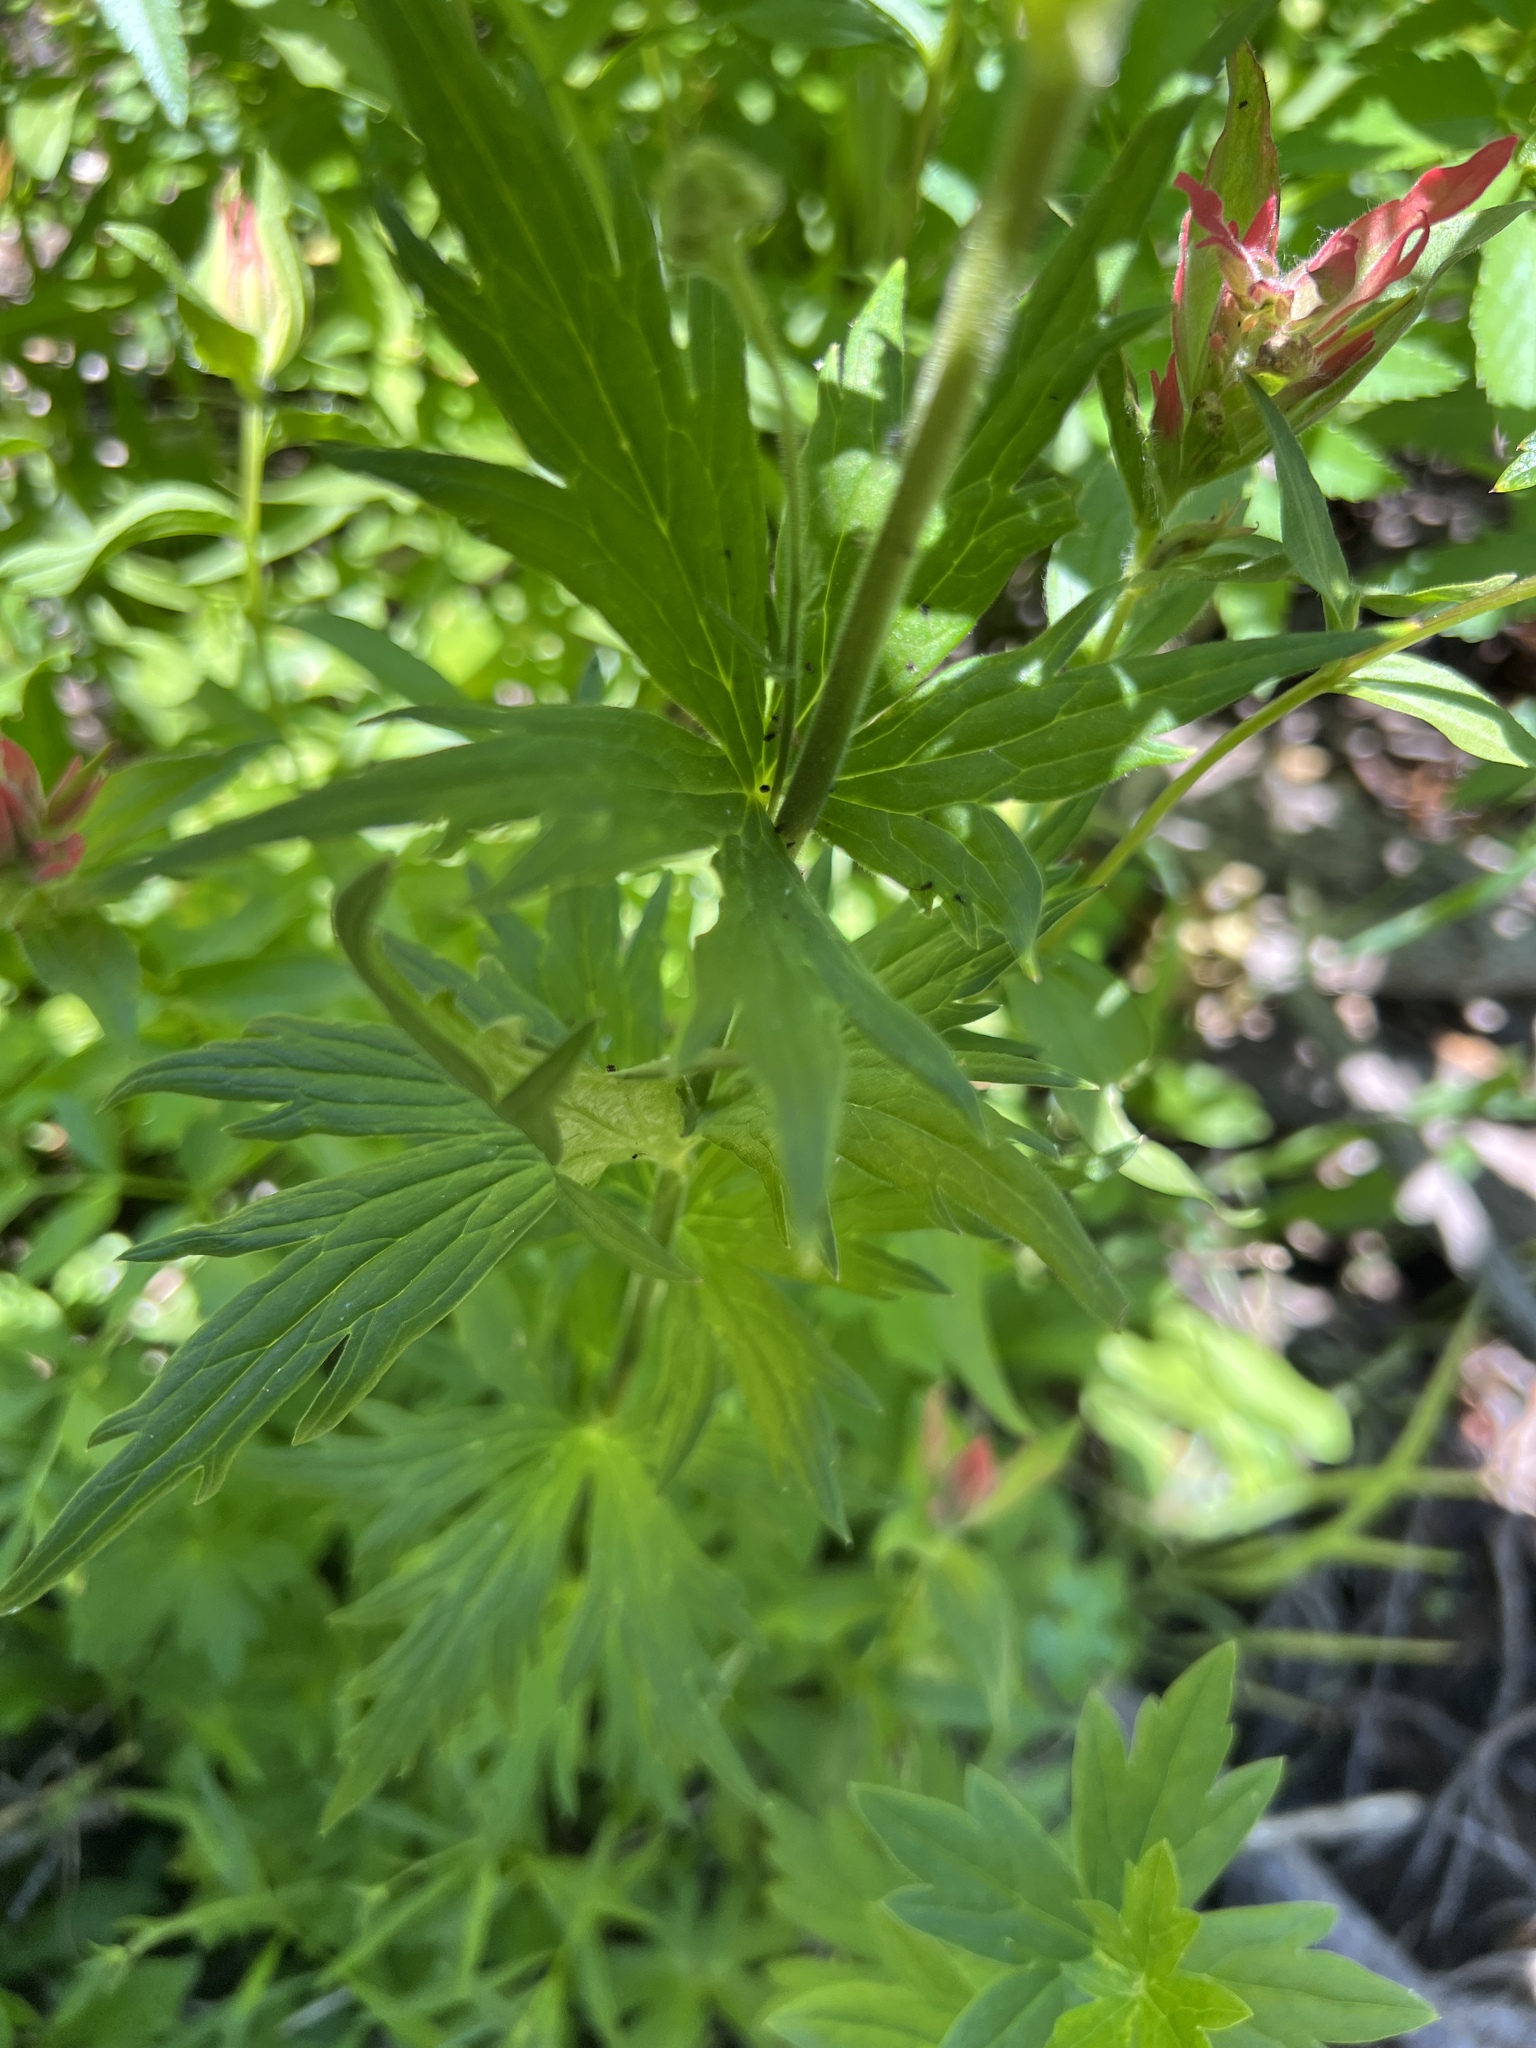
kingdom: Plantae
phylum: Tracheophyta
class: Magnoliopsida
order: Ranunculales
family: Ranunculaceae
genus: Aconitum
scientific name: Aconitum columbianum
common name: Columbia aconite
